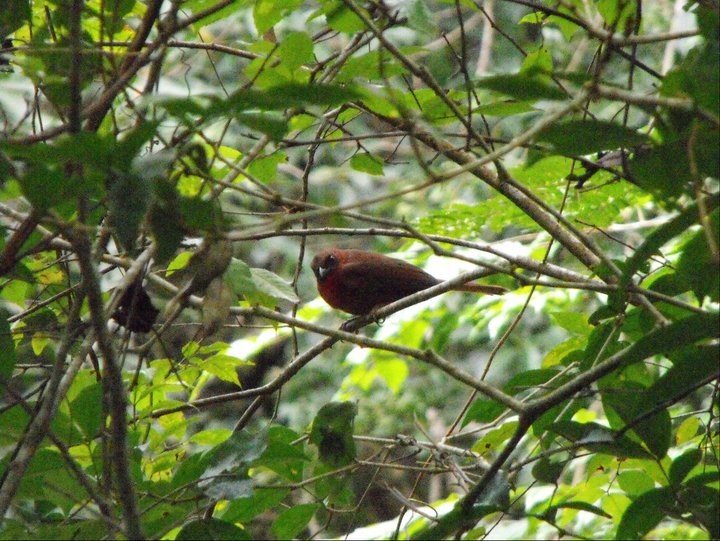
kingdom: Animalia
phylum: Chordata
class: Aves
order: Passeriformes
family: Cardinalidae
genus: Habia
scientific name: Habia fuscicauda
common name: Red-throated ant-tanager
